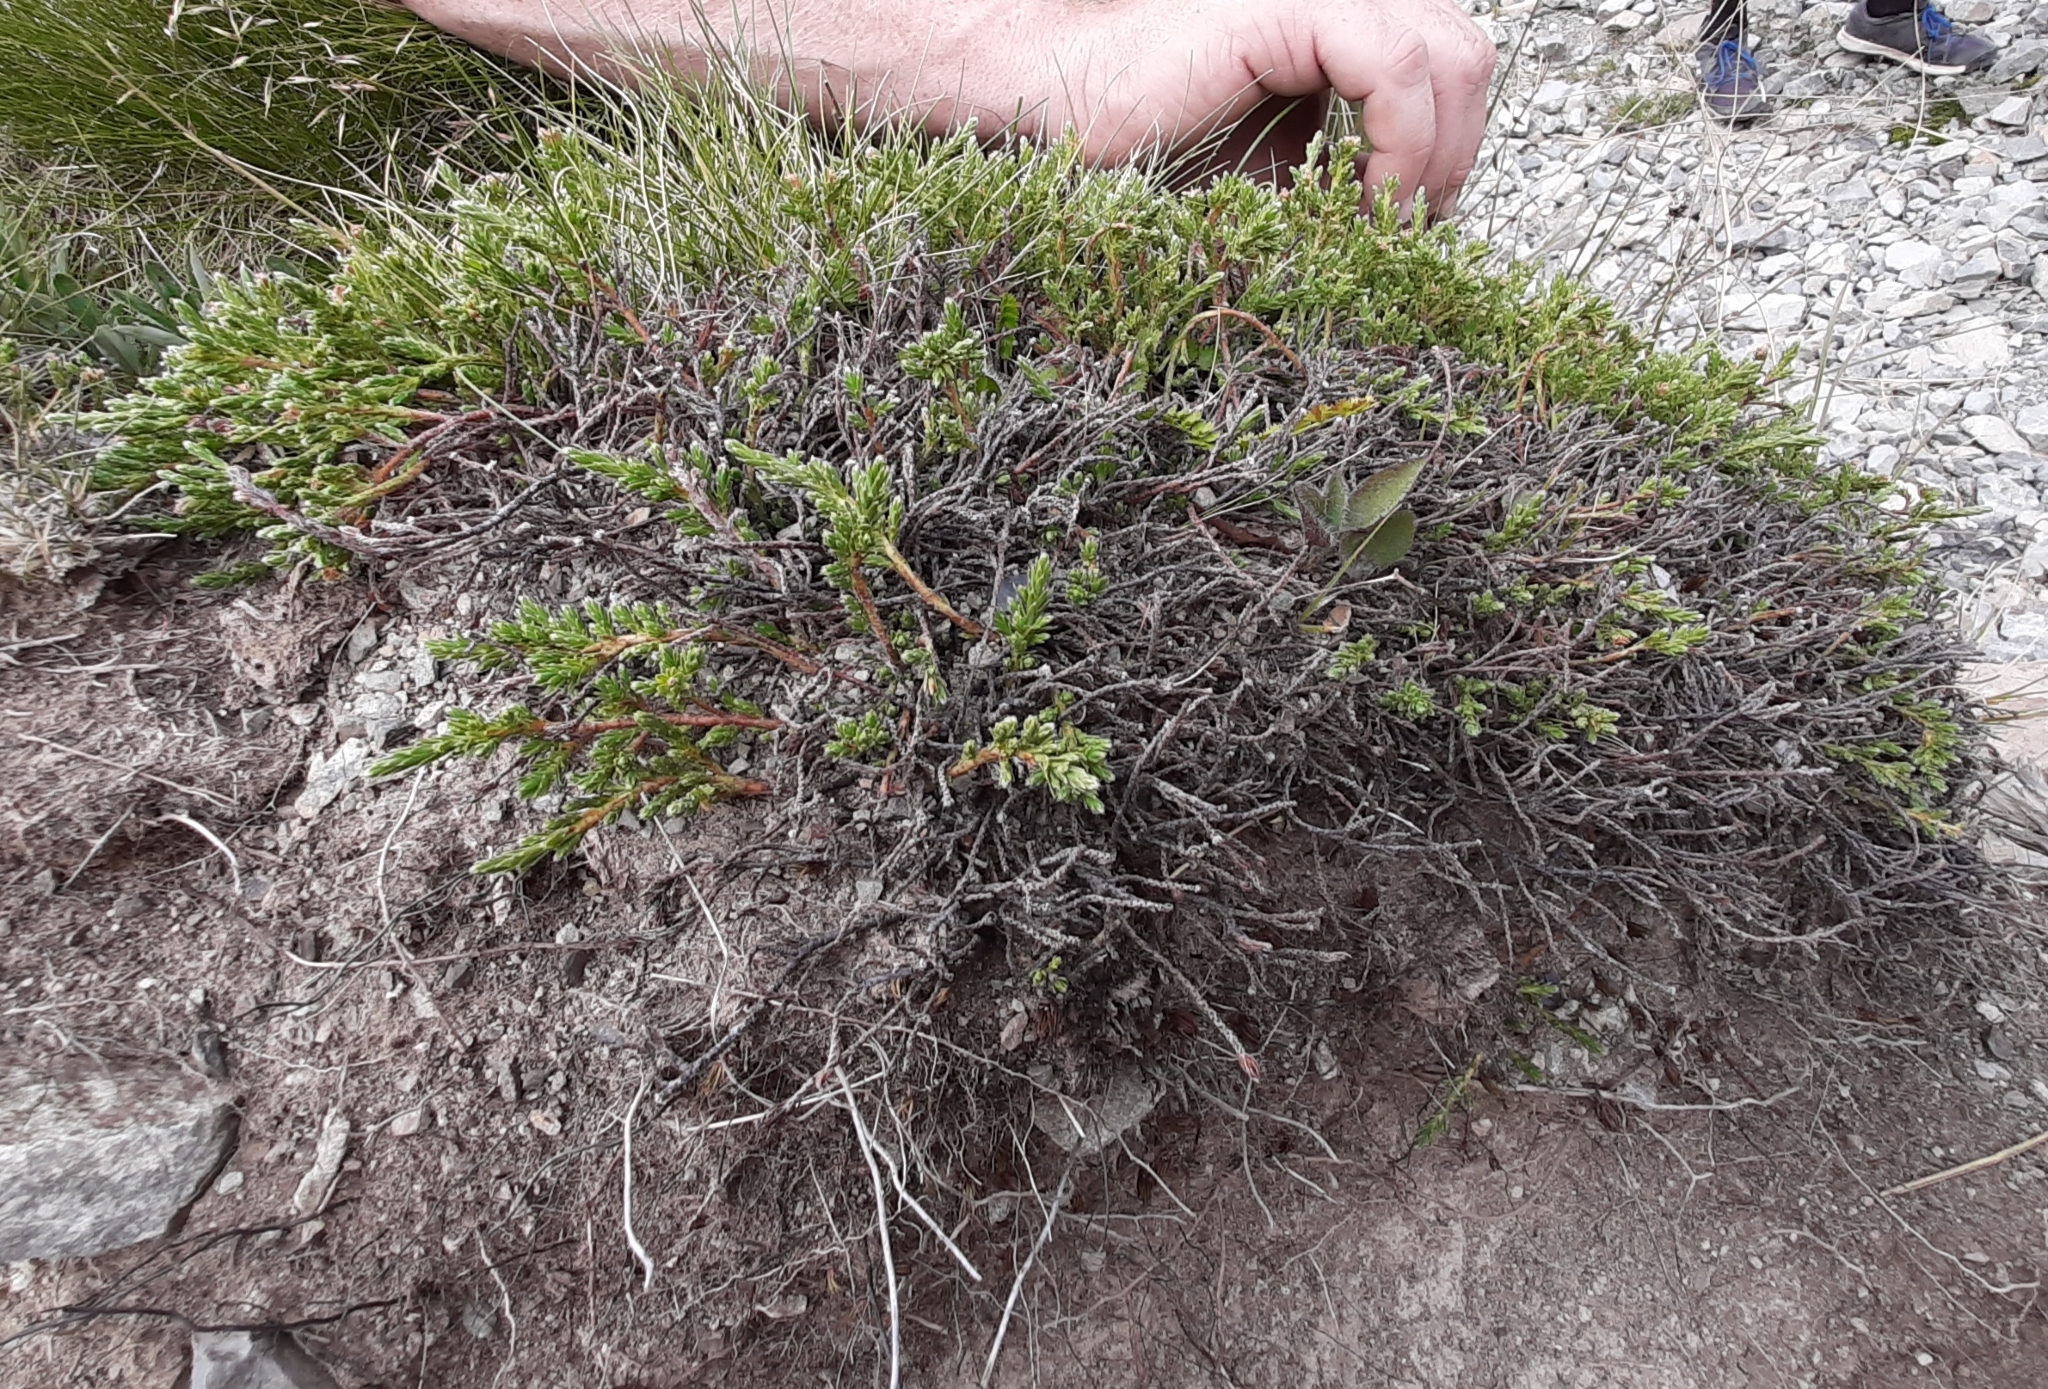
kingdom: Plantae
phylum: Tracheophyta
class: Magnoliopsida
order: Malvales
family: Thymelaeaceae
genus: Kelleria
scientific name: Kelleria dieffenbachii
